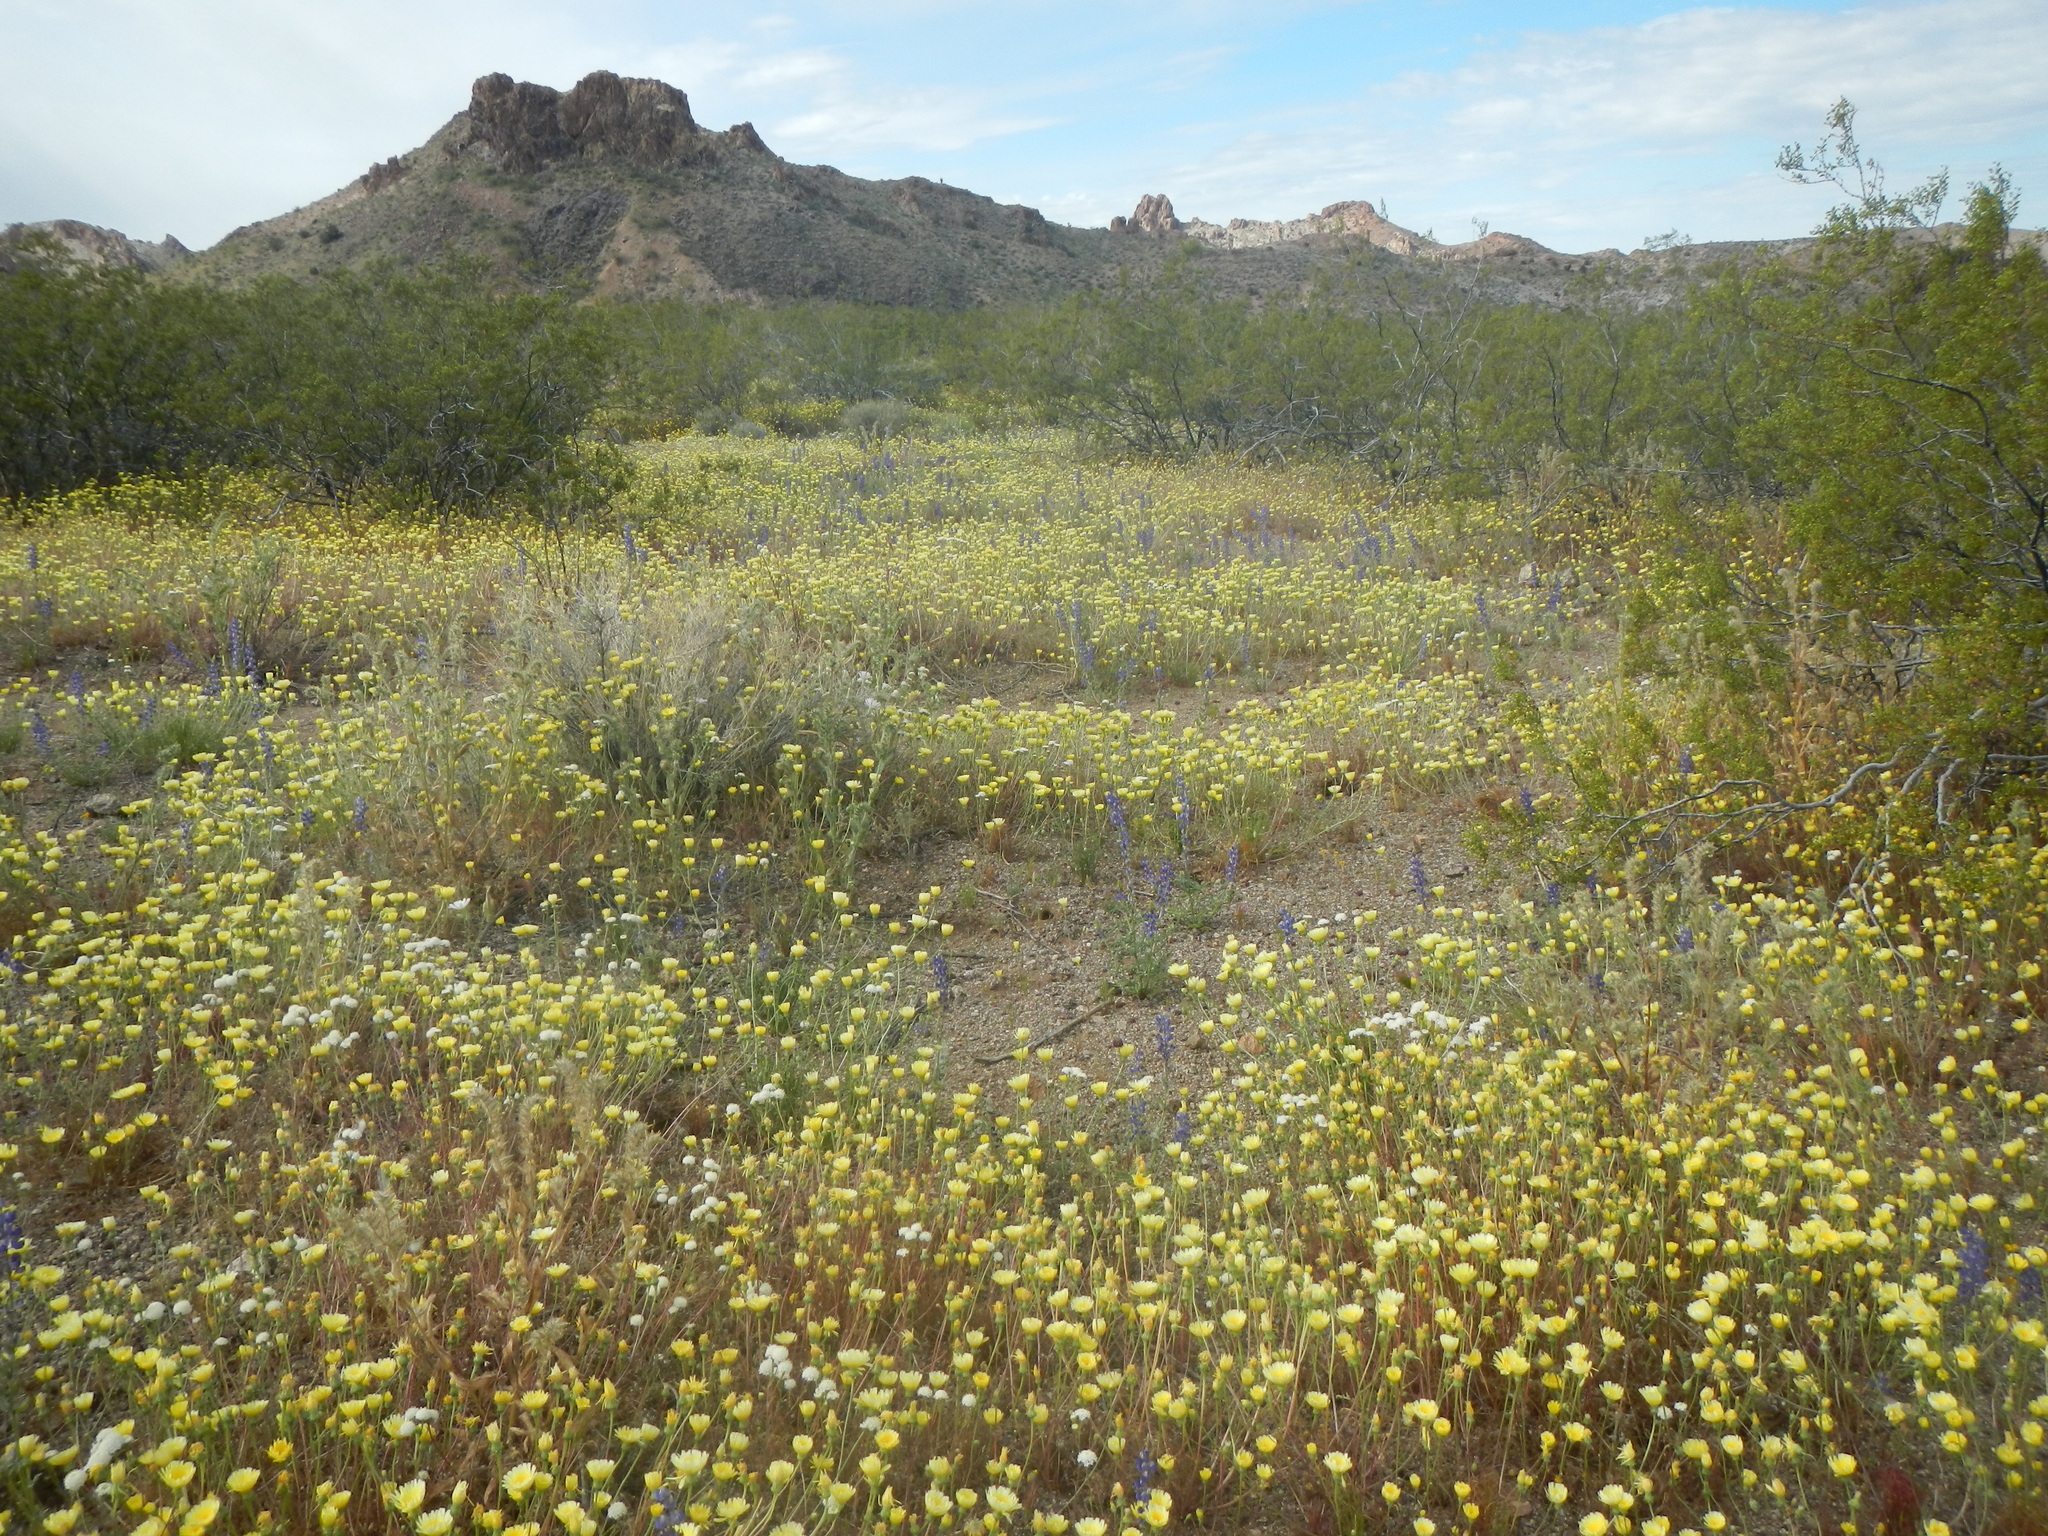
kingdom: Plantae
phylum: Tracheophyta
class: Magnoliopsida
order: Asterales
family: Asteraceae
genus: Malacothrix
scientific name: Malacothrix glabrata
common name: Smooth desert-dandelion
